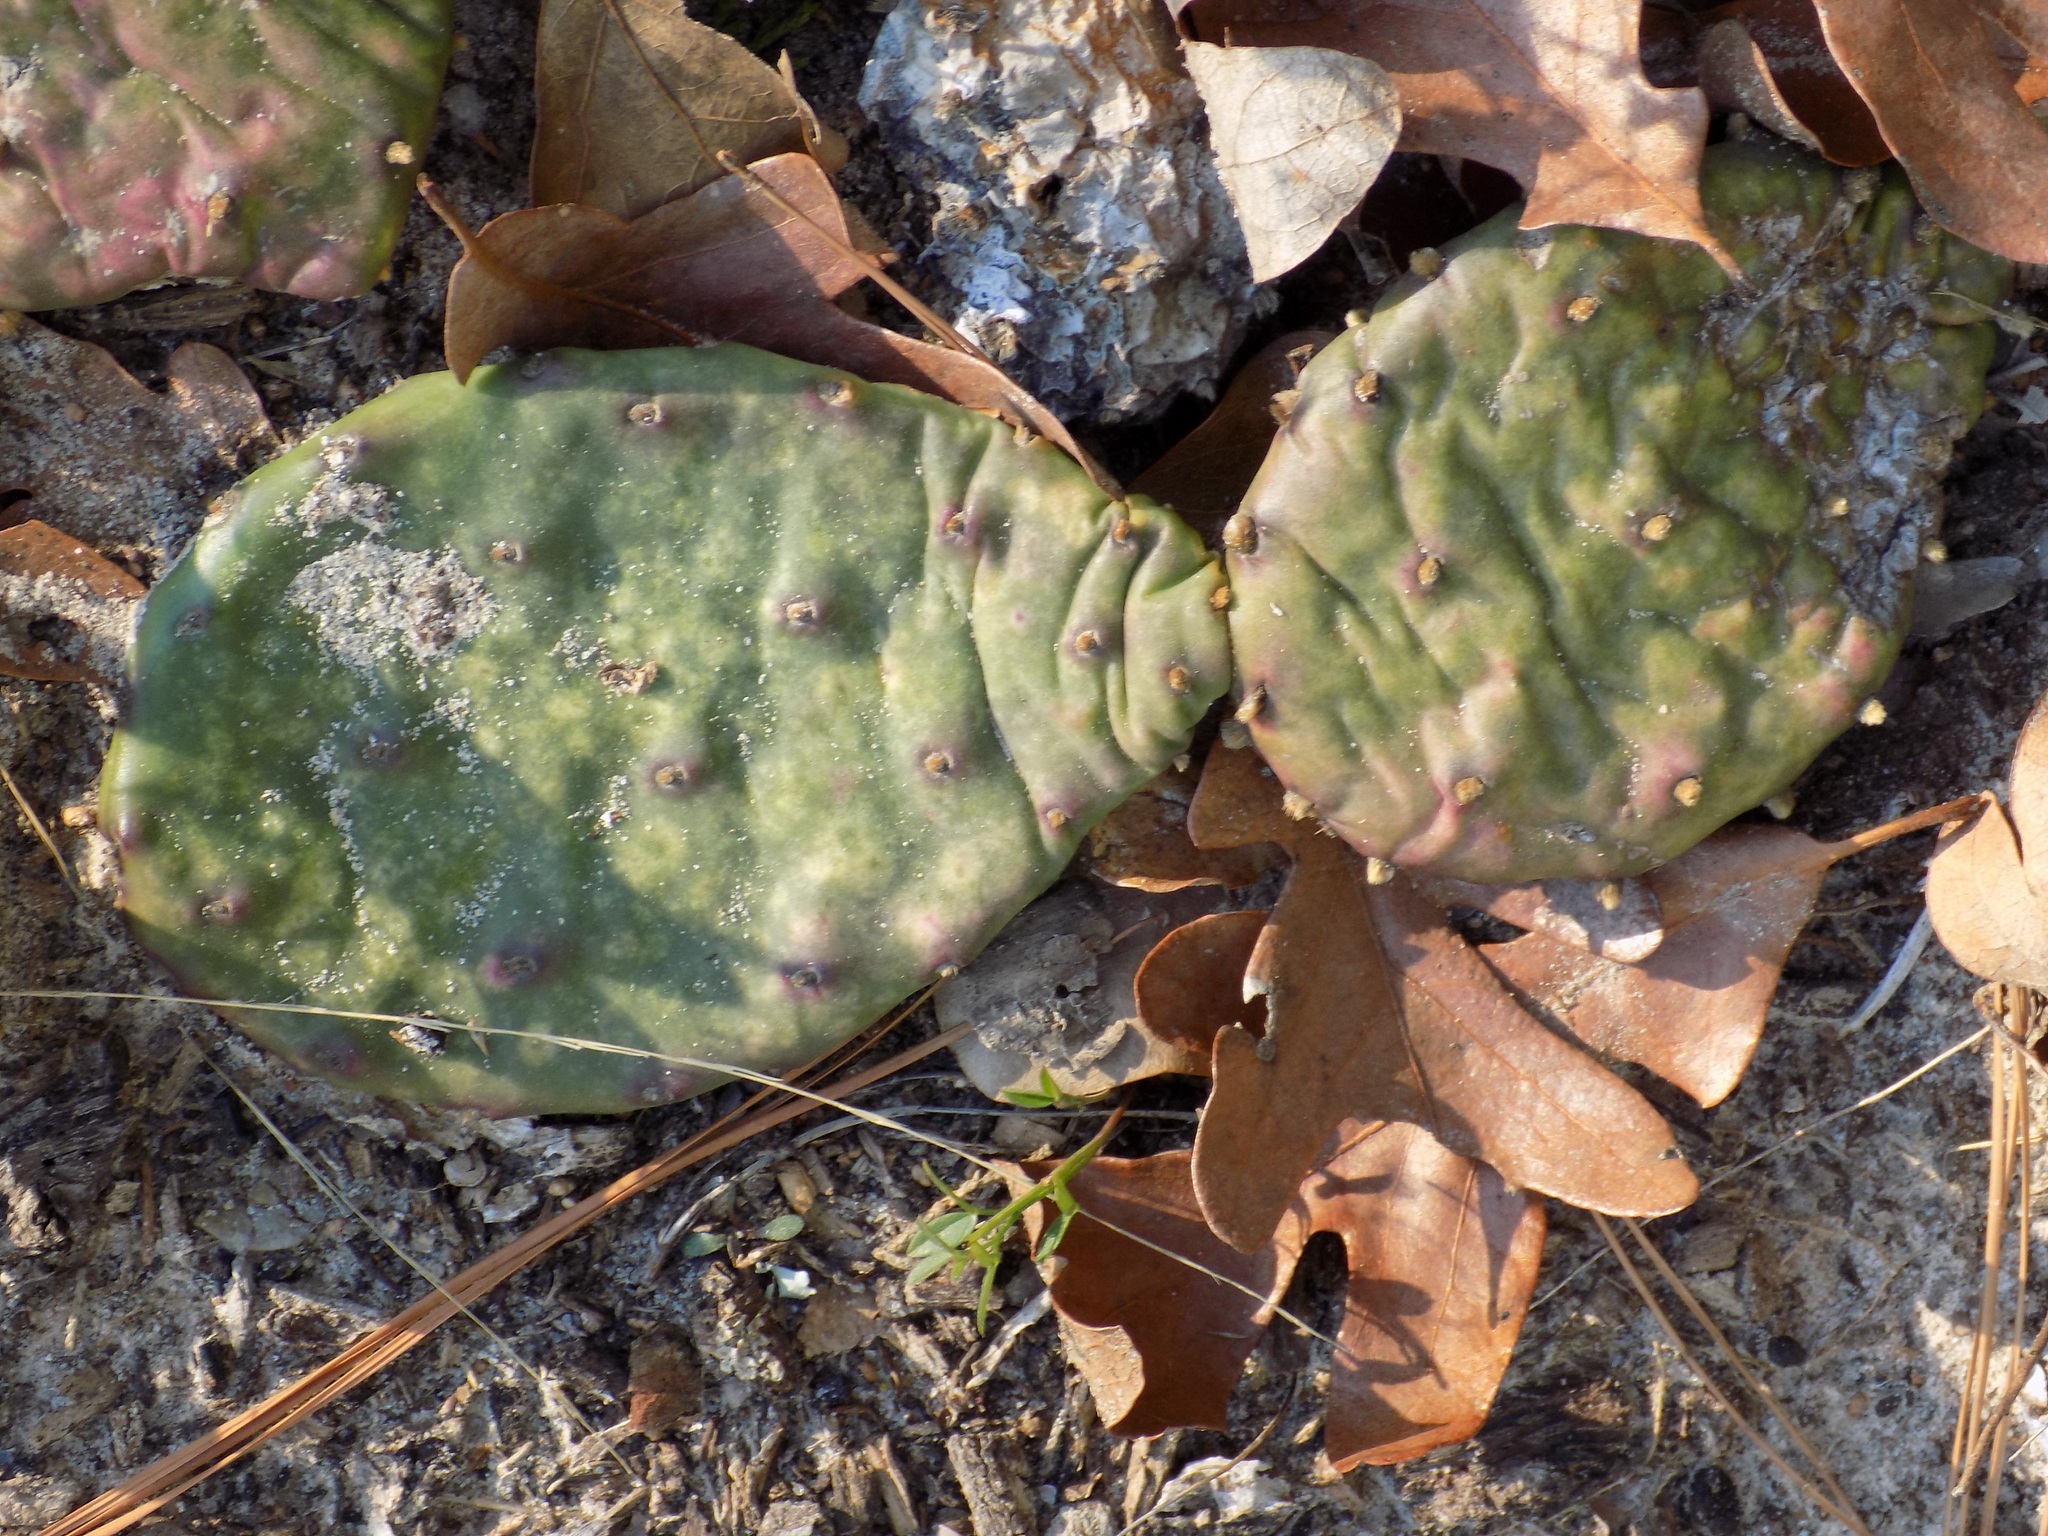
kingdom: Plantae
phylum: Tracheophyta
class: Magnoliopsida
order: Caryophyllales
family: Cactaceae
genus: Opuntia
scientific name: Opuntia macrorhiza
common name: Grassland pricklypear
